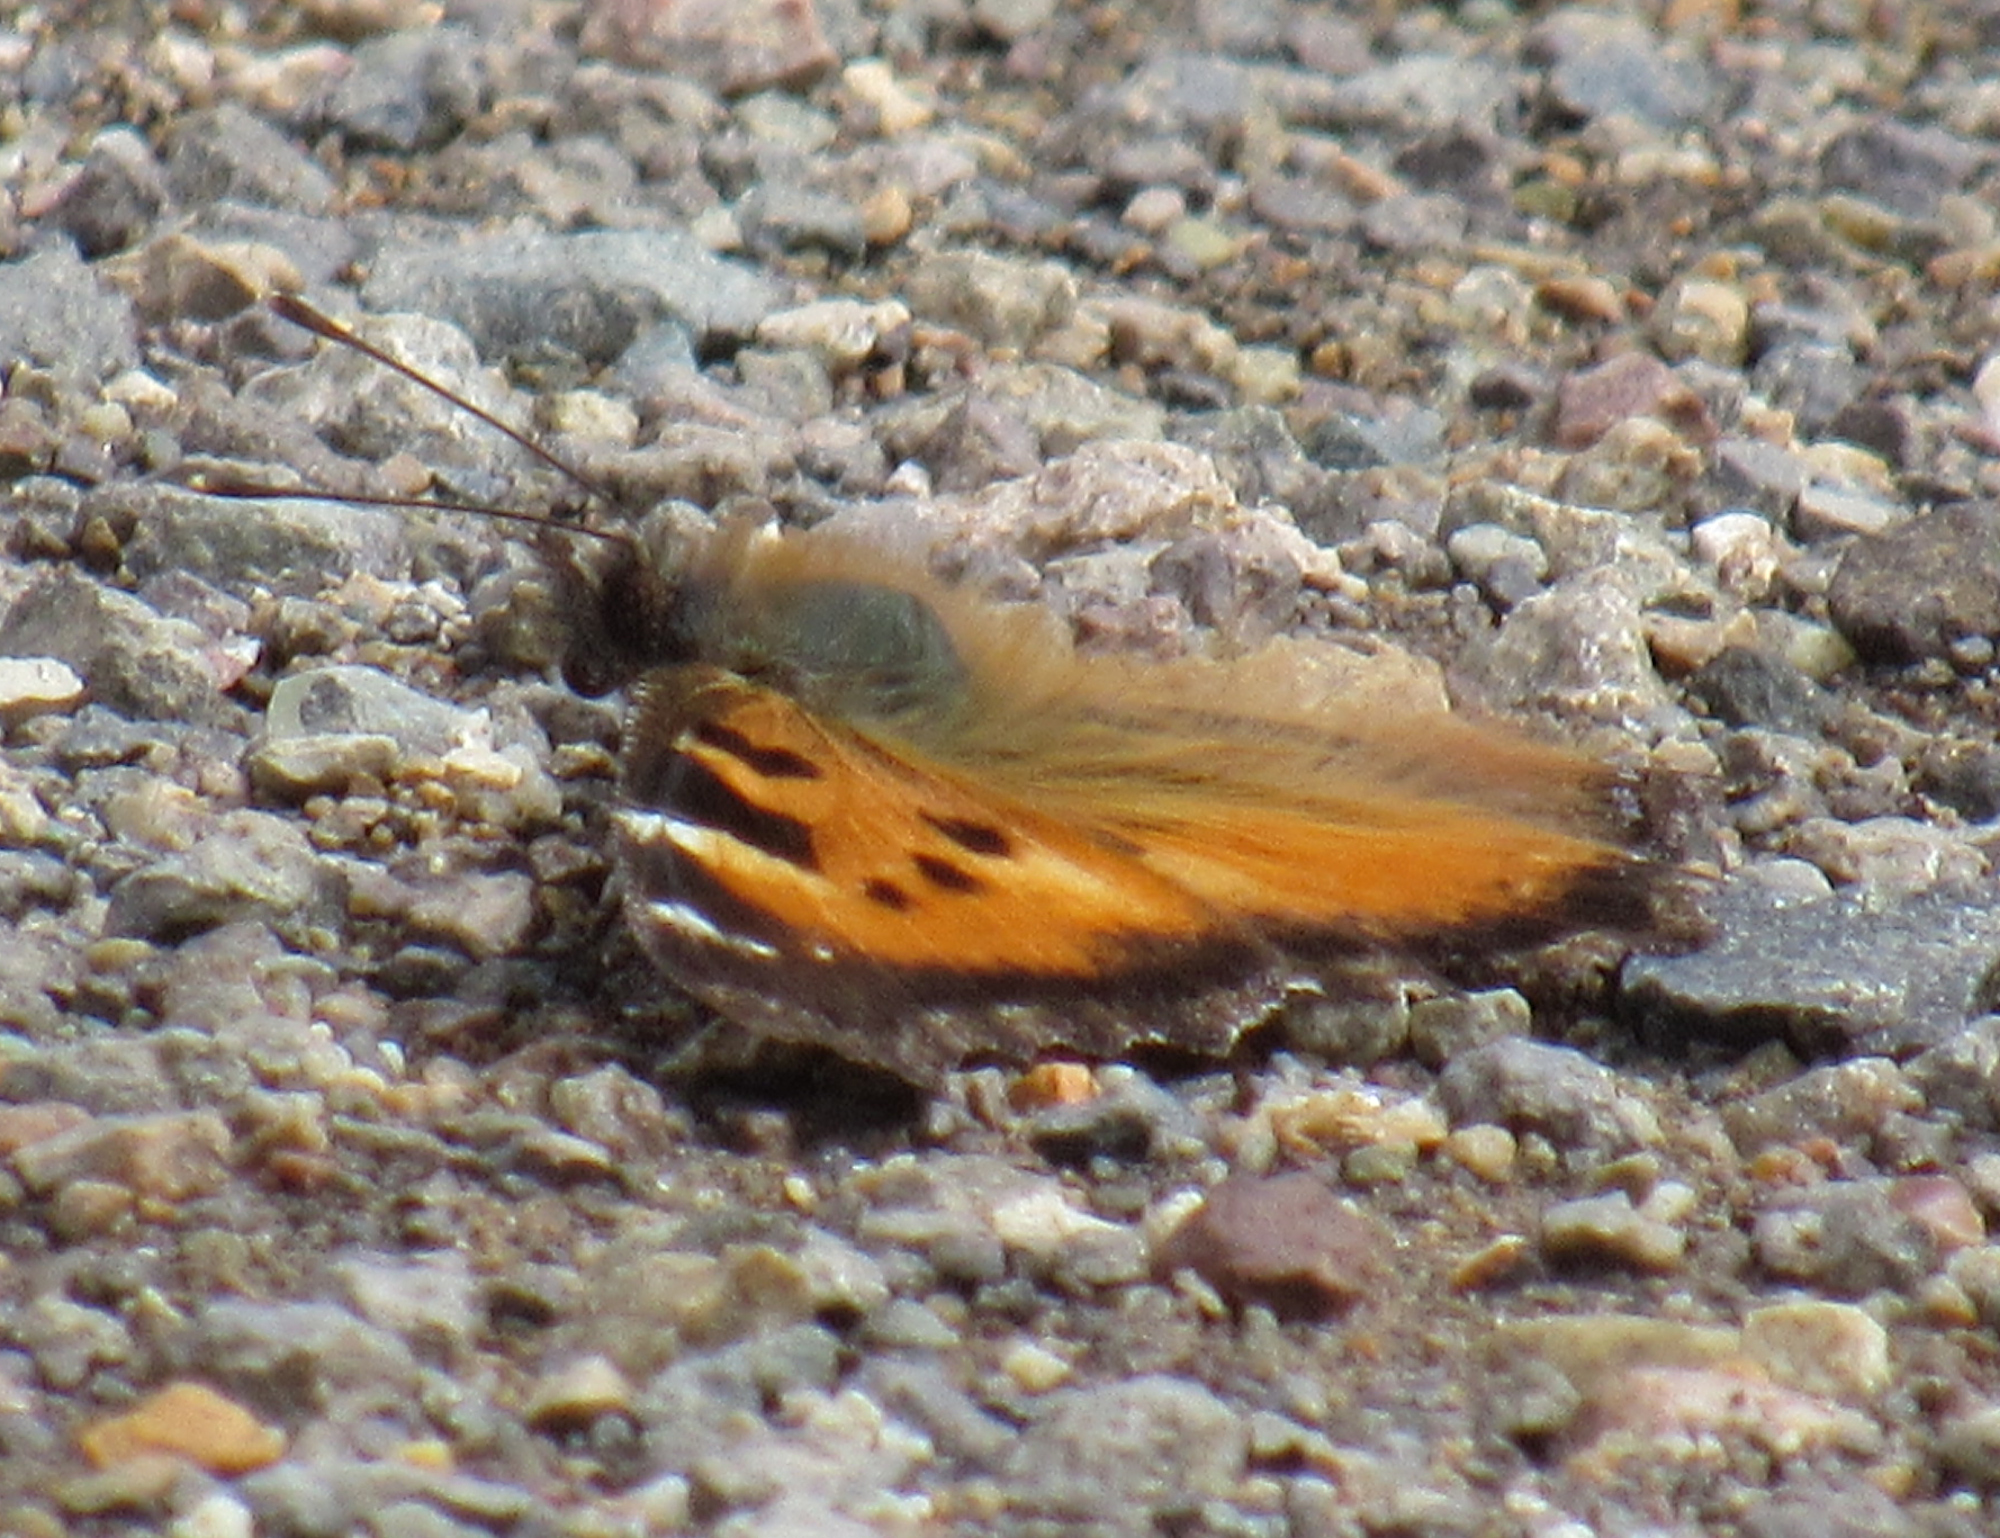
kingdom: Animalia
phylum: Arthropoda
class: Insecta
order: Lepidoptera
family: Nymphalidae
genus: Nymphalis
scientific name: Nymphalis californica
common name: California tortoiseshell
